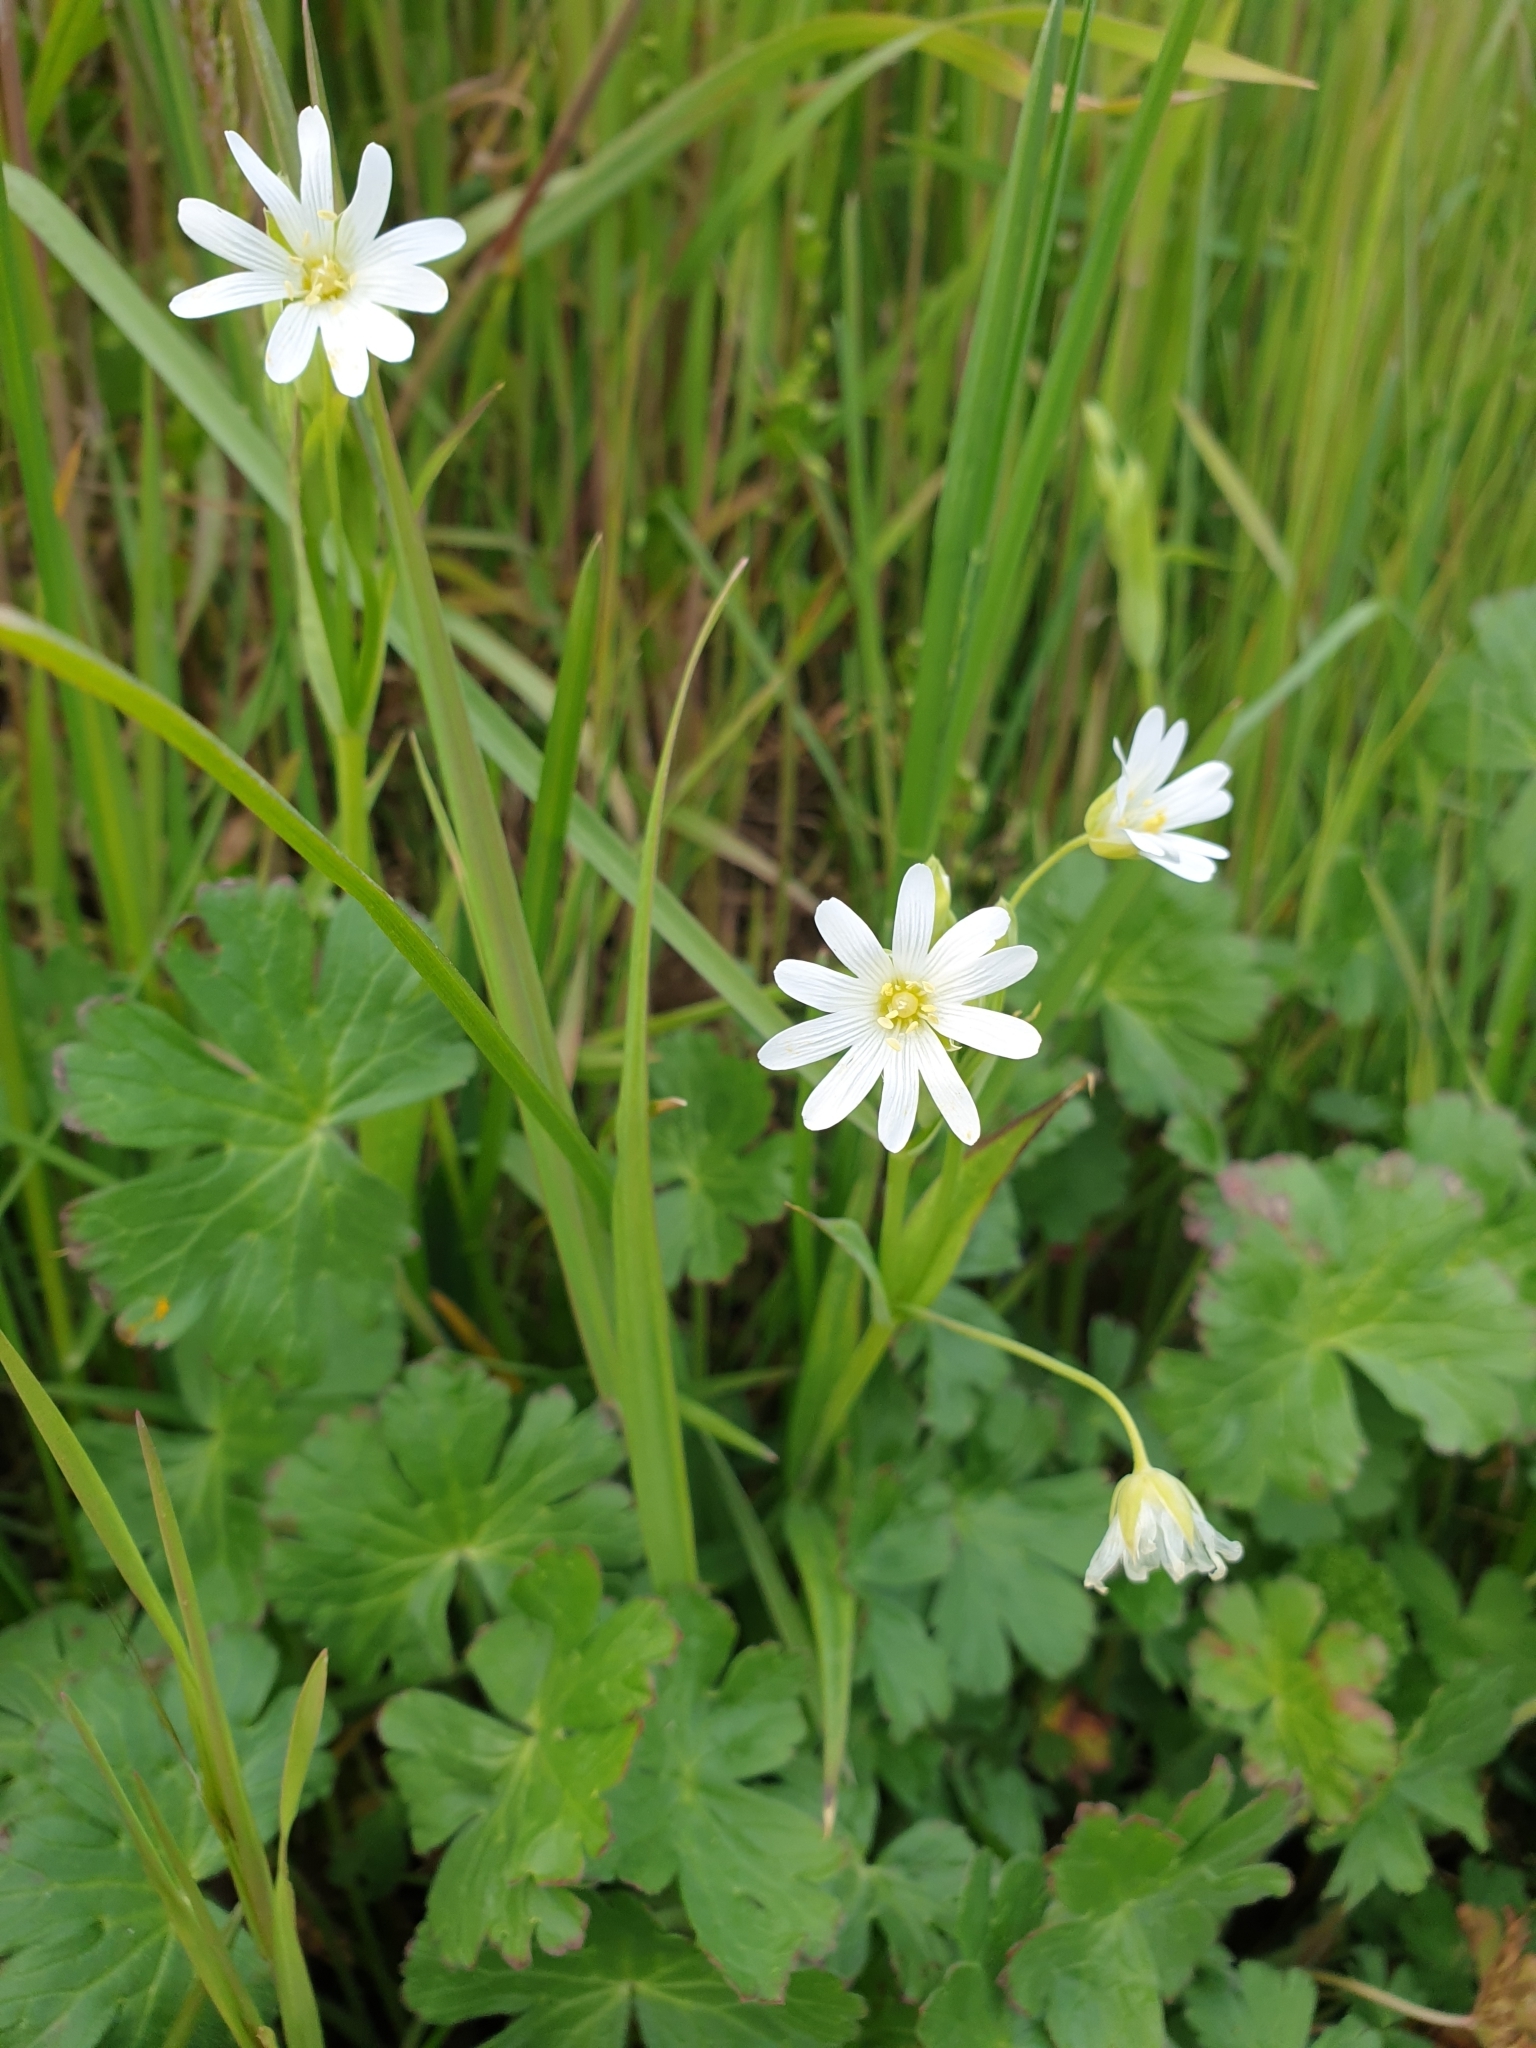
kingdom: Plantae
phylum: Tracheophyta
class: Magnoliopsida
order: Caryophyllales
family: Caryophyllaceae
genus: Rabelera
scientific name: Rabelera holostea
